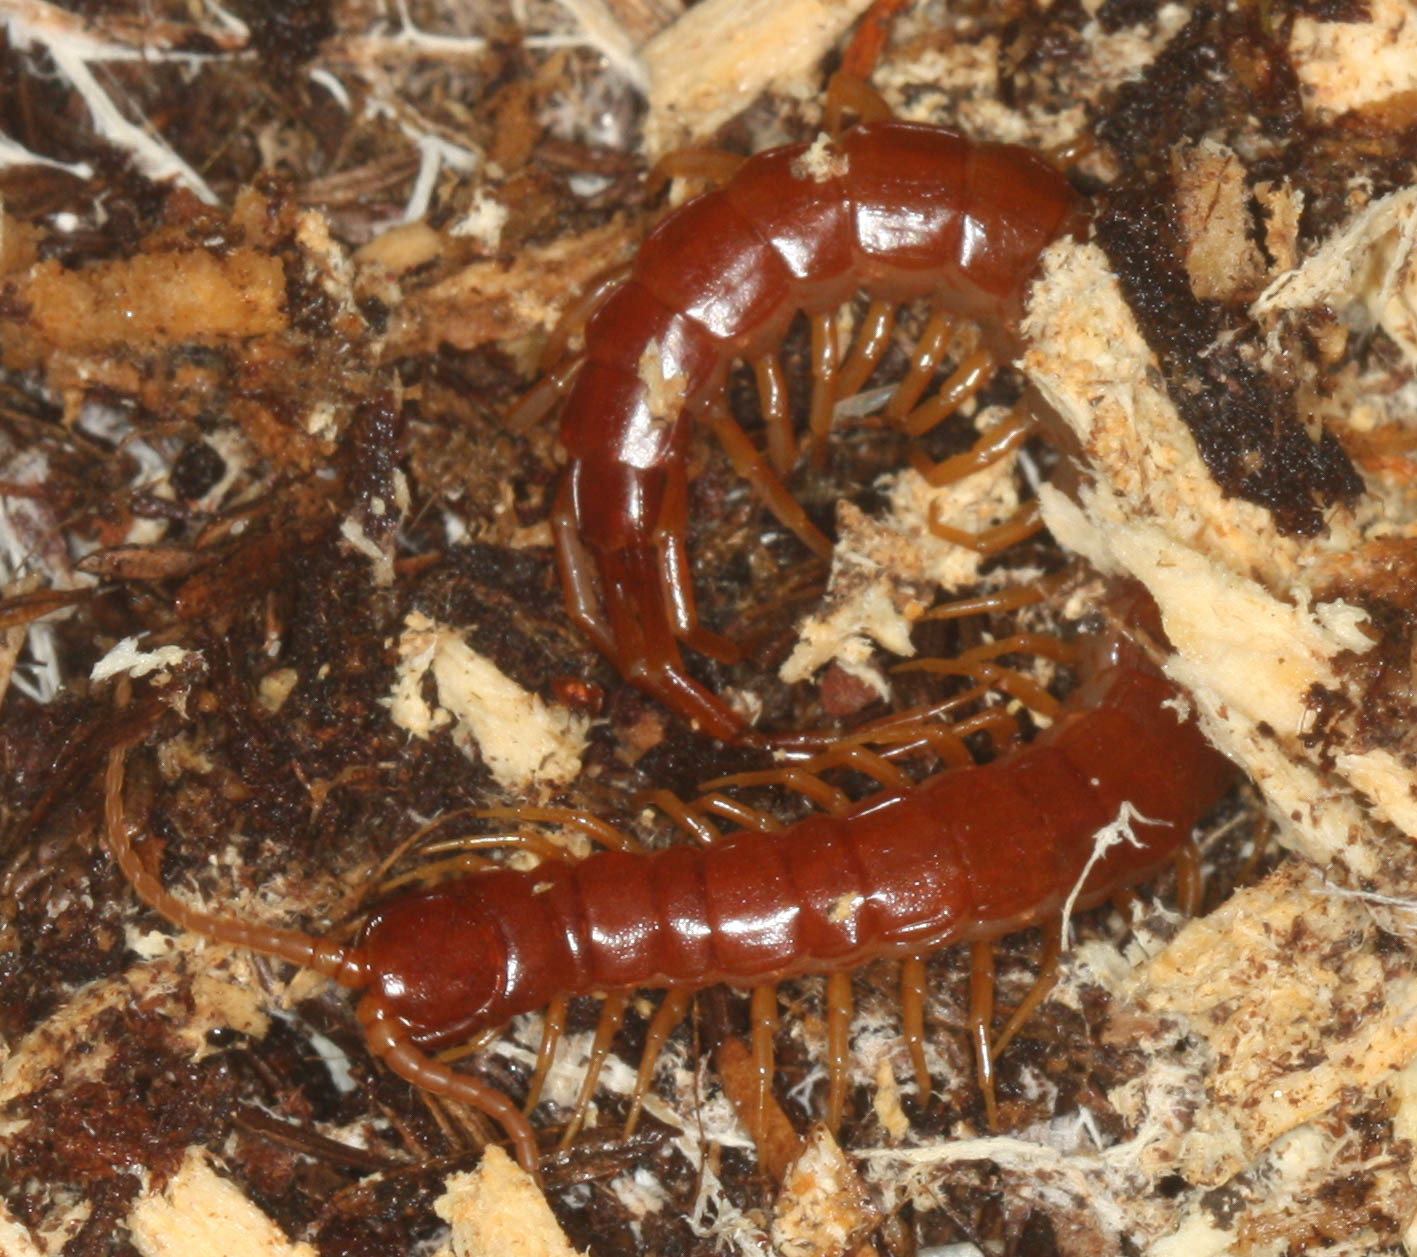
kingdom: Animalia
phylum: Arthropoda
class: Chilopoda
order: Scolopendromorpha
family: Scolopocryptopidae
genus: Scolopocryptops
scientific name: Scolopocryptops spinicaudus
